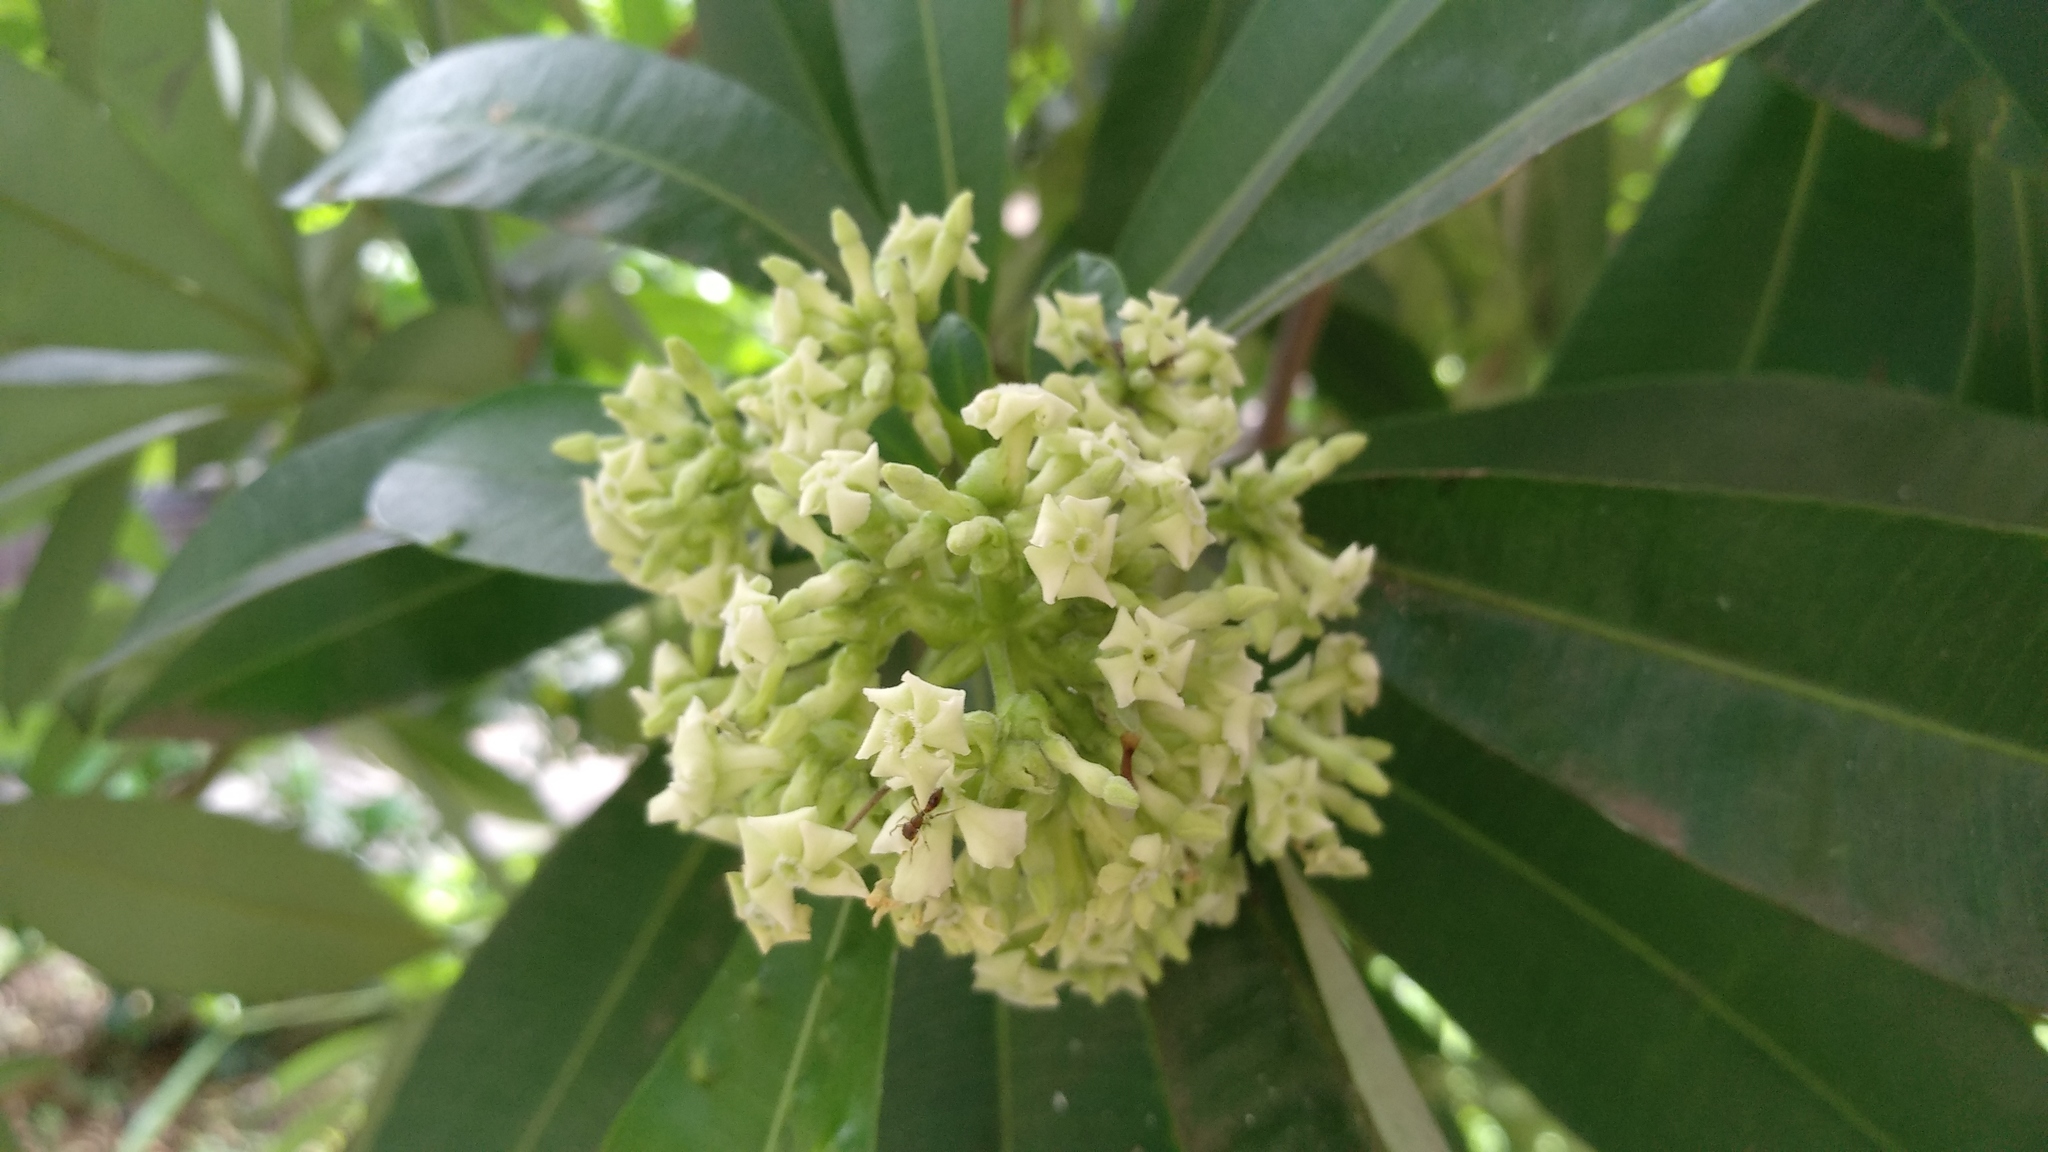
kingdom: Plantae
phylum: Tracheophyta
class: Magnoliopsida
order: Gentianales
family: Apocynaceae
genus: Alstonia
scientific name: Alstonia scholaris
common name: White cheesewood
